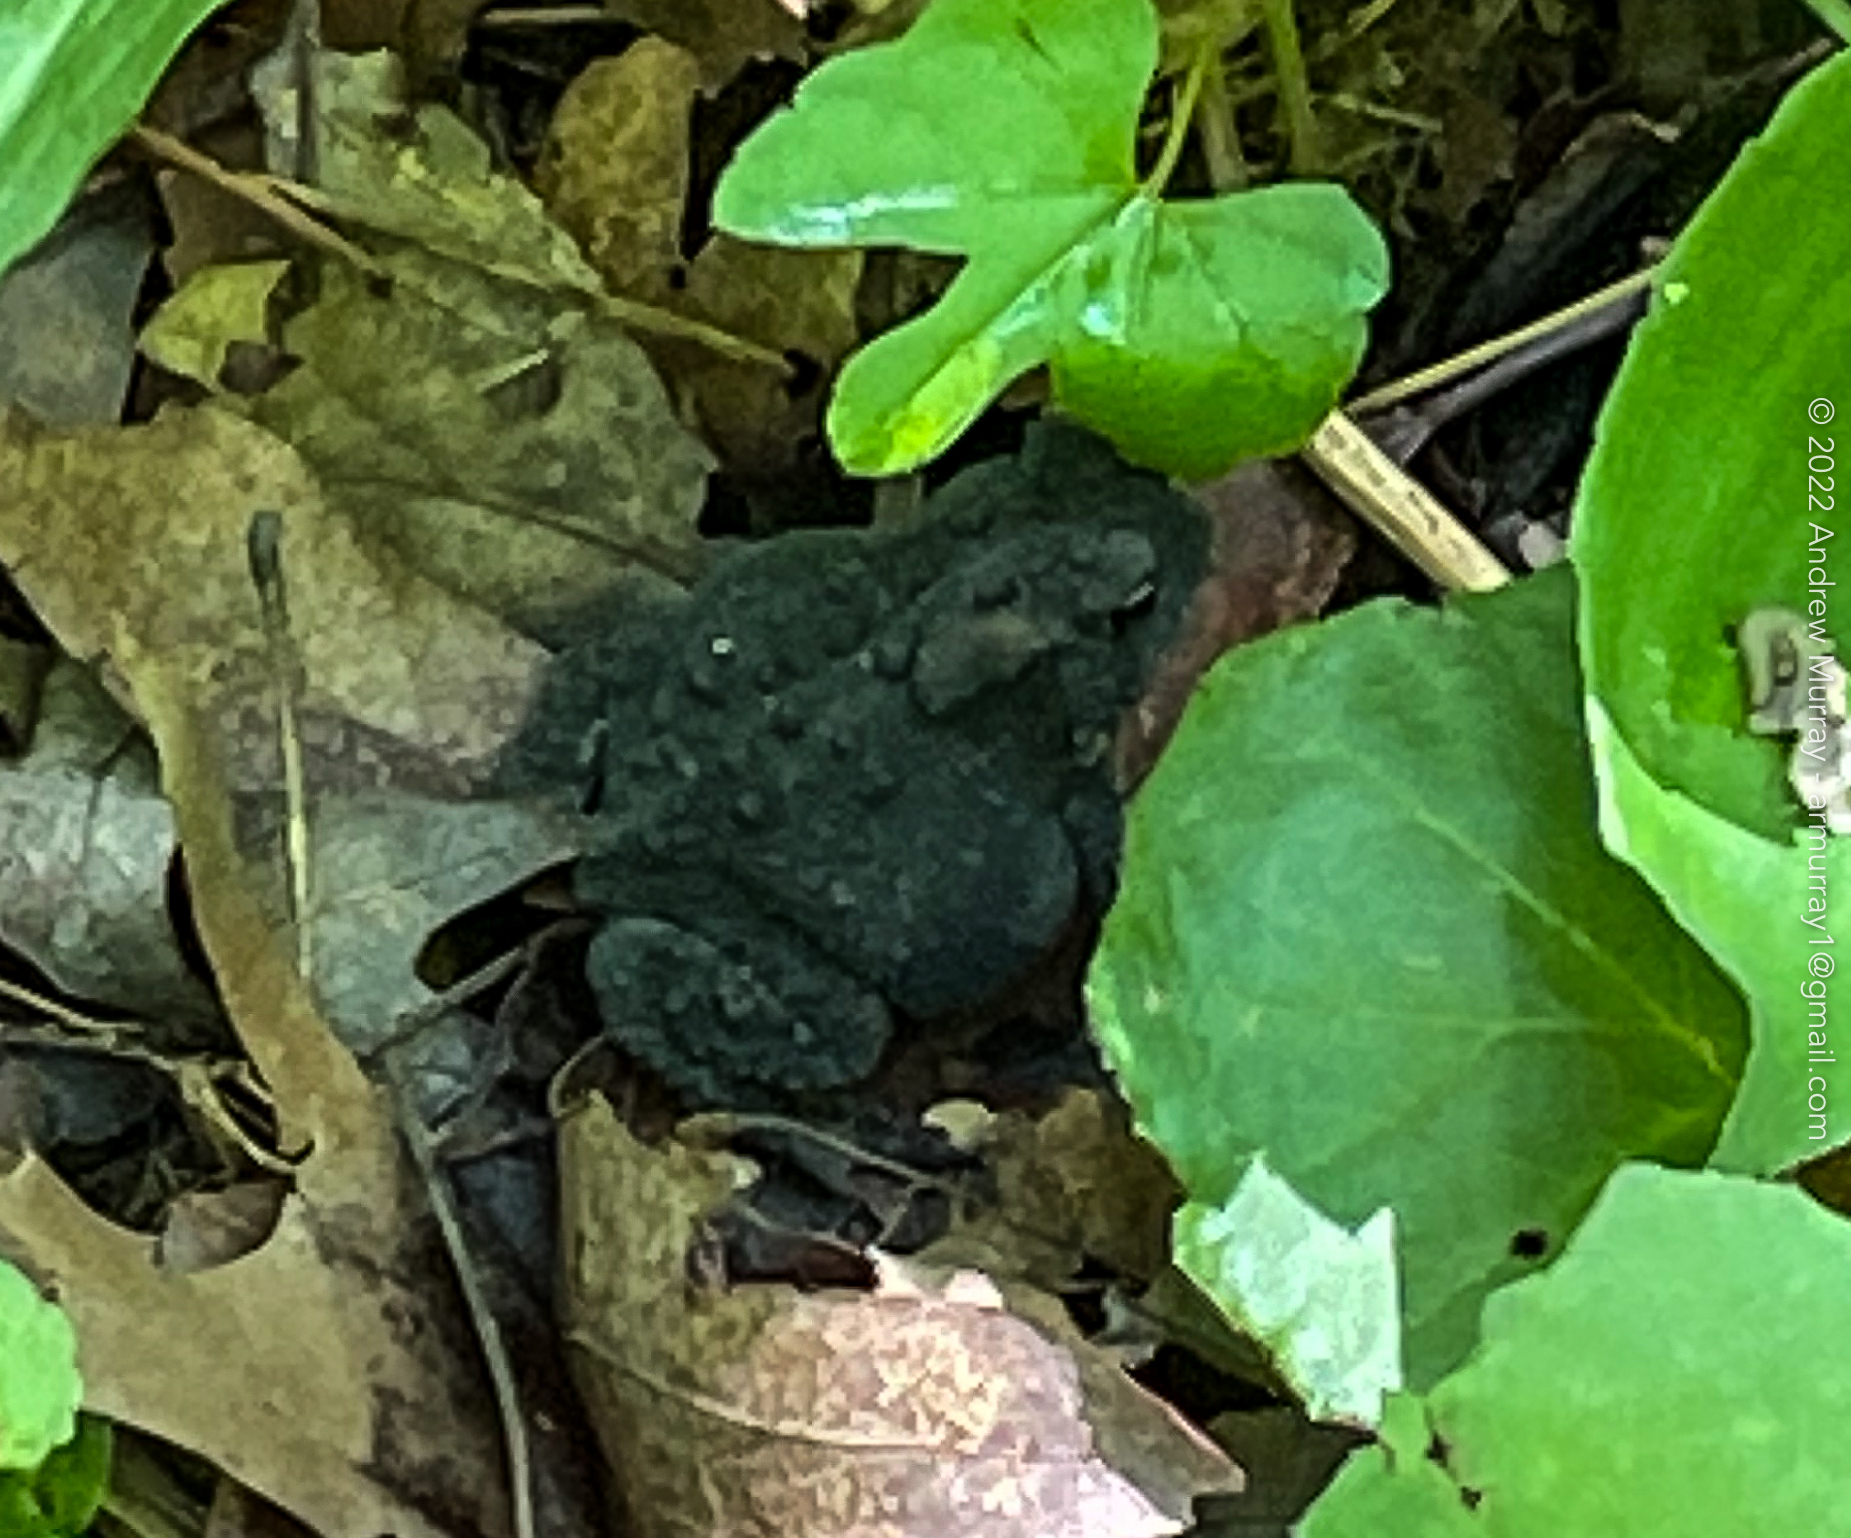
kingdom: Animalia
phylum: Chordata
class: Amphibia
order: Anura
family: Bufonidae
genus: Anaxyrus
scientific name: Anaxyrus americanus
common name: American toad
